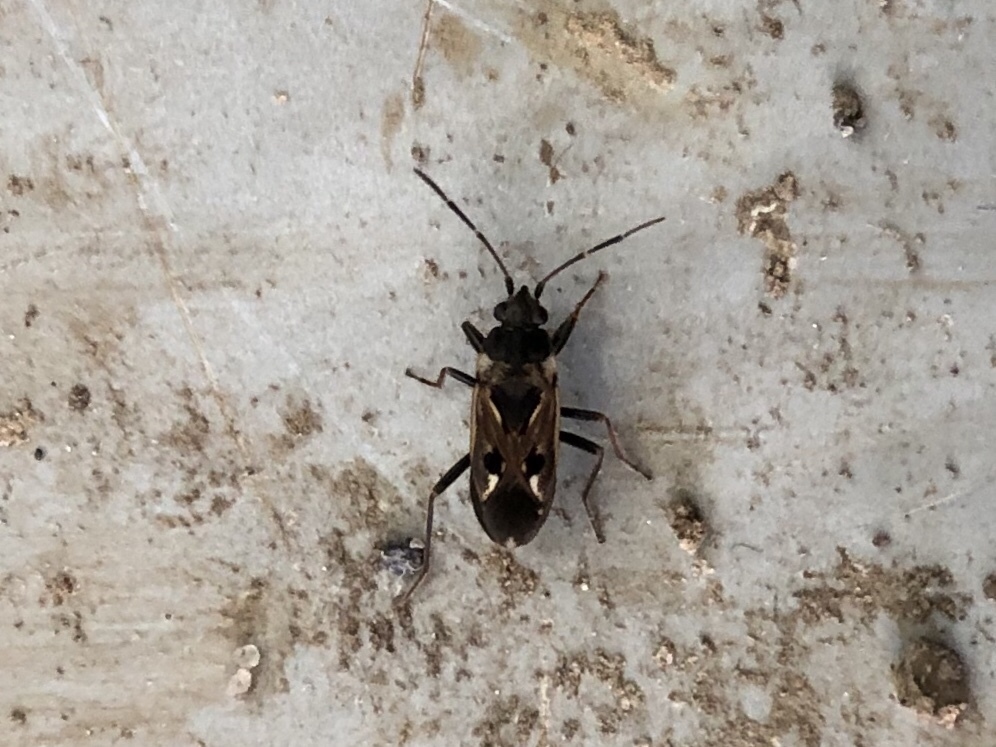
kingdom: Animalia
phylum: Arthropoda
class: Insecta
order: Hemiptera
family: Rhyparochromidae
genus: Rhyparochromus
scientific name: Rhyparochromus vulgaris
